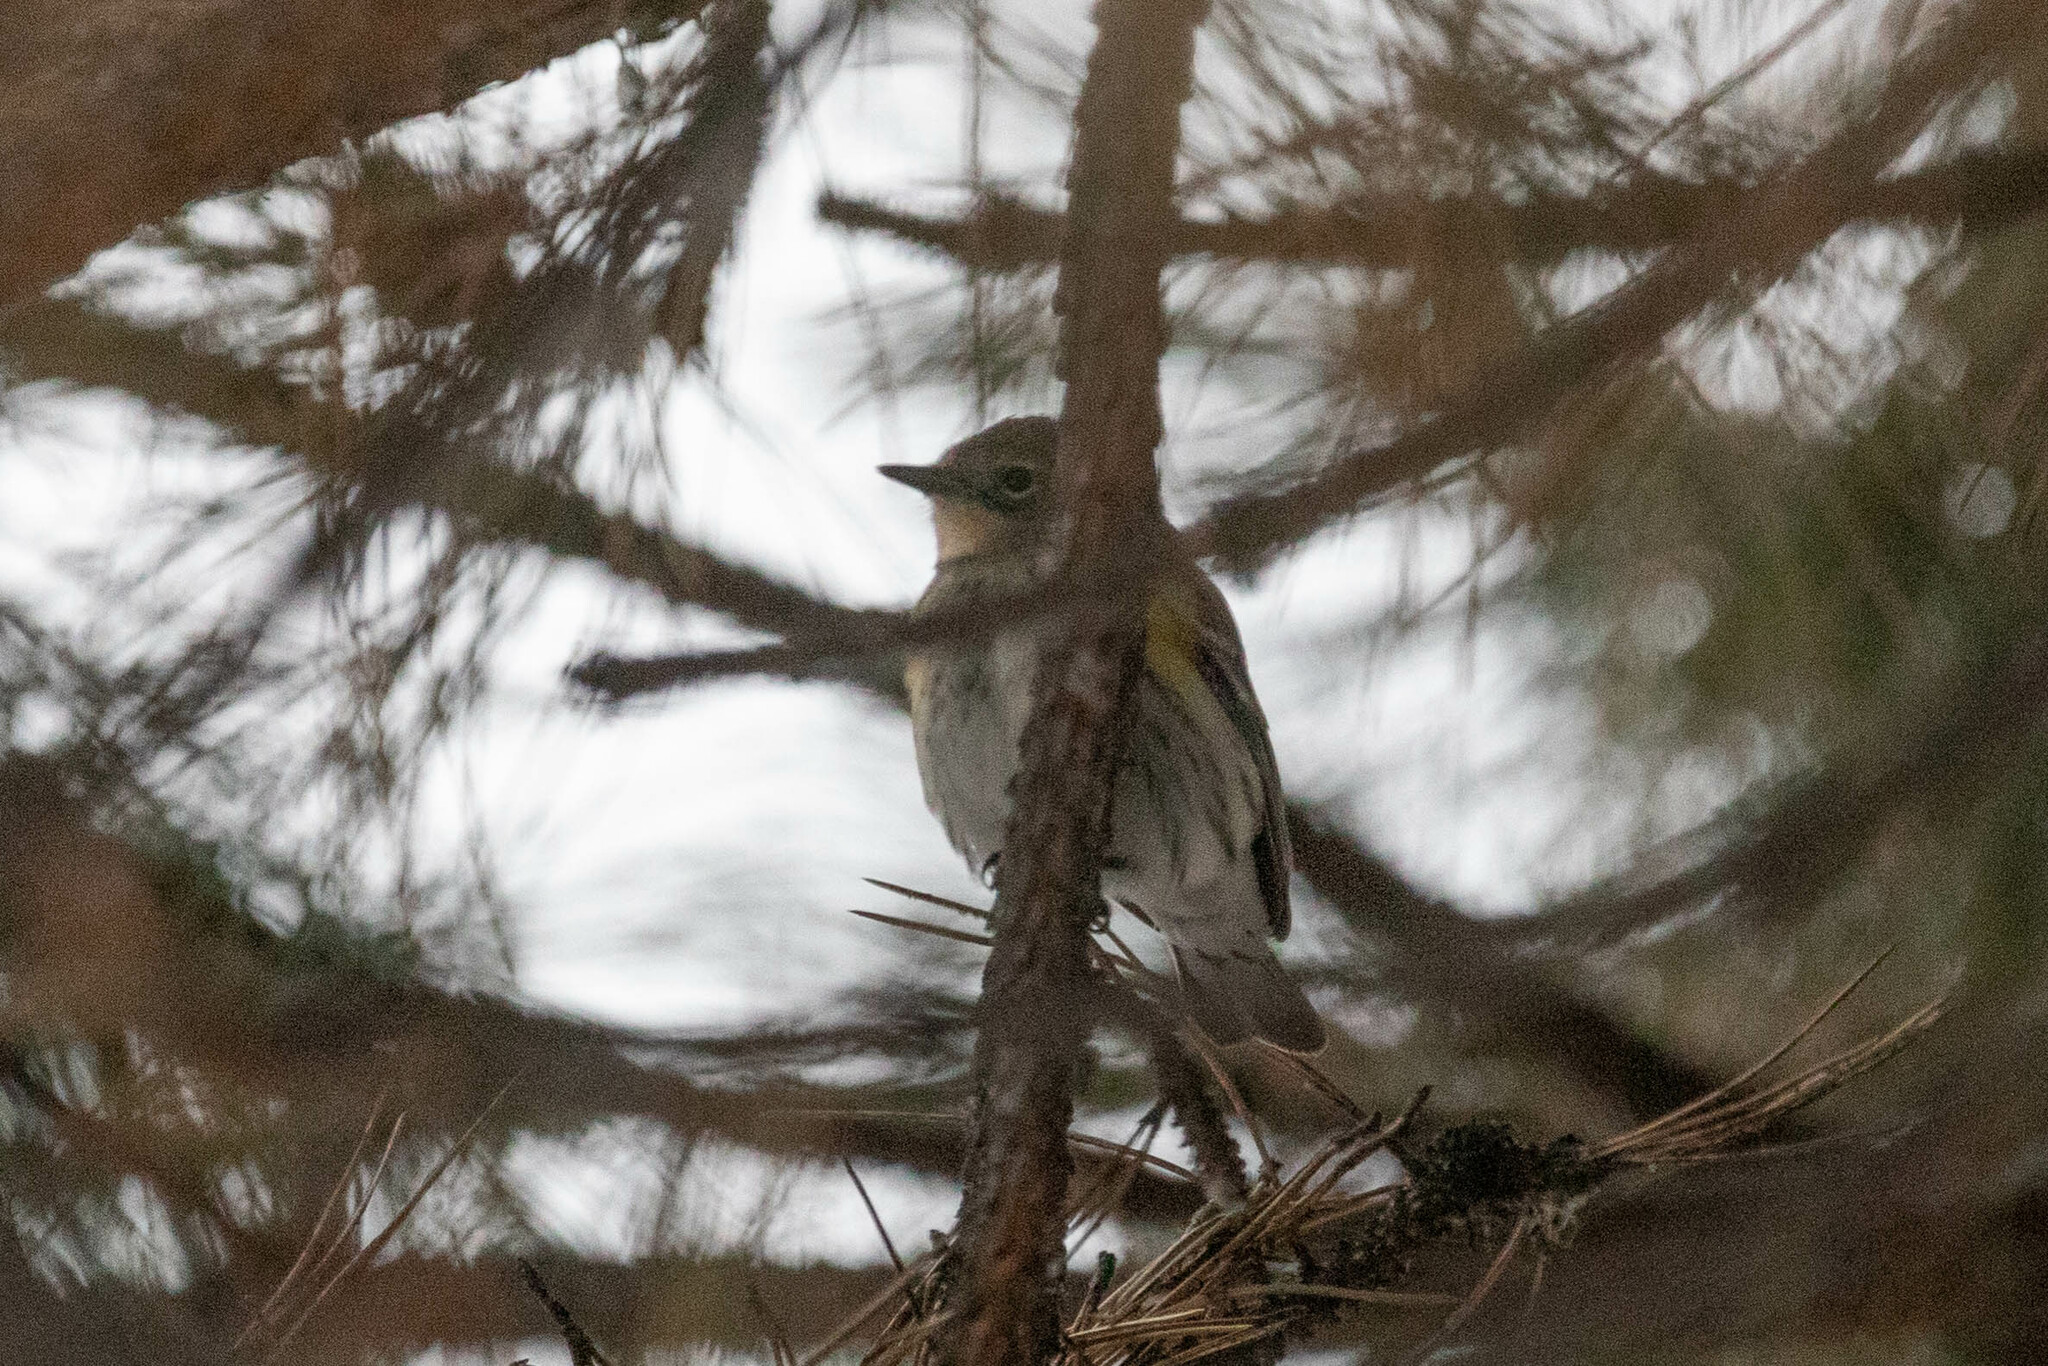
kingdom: Animalia
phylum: Chordata
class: Aves
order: Passeriformes
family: Parulidae
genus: Setophaga
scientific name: Setophaga coronata
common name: Myrtle warbler
